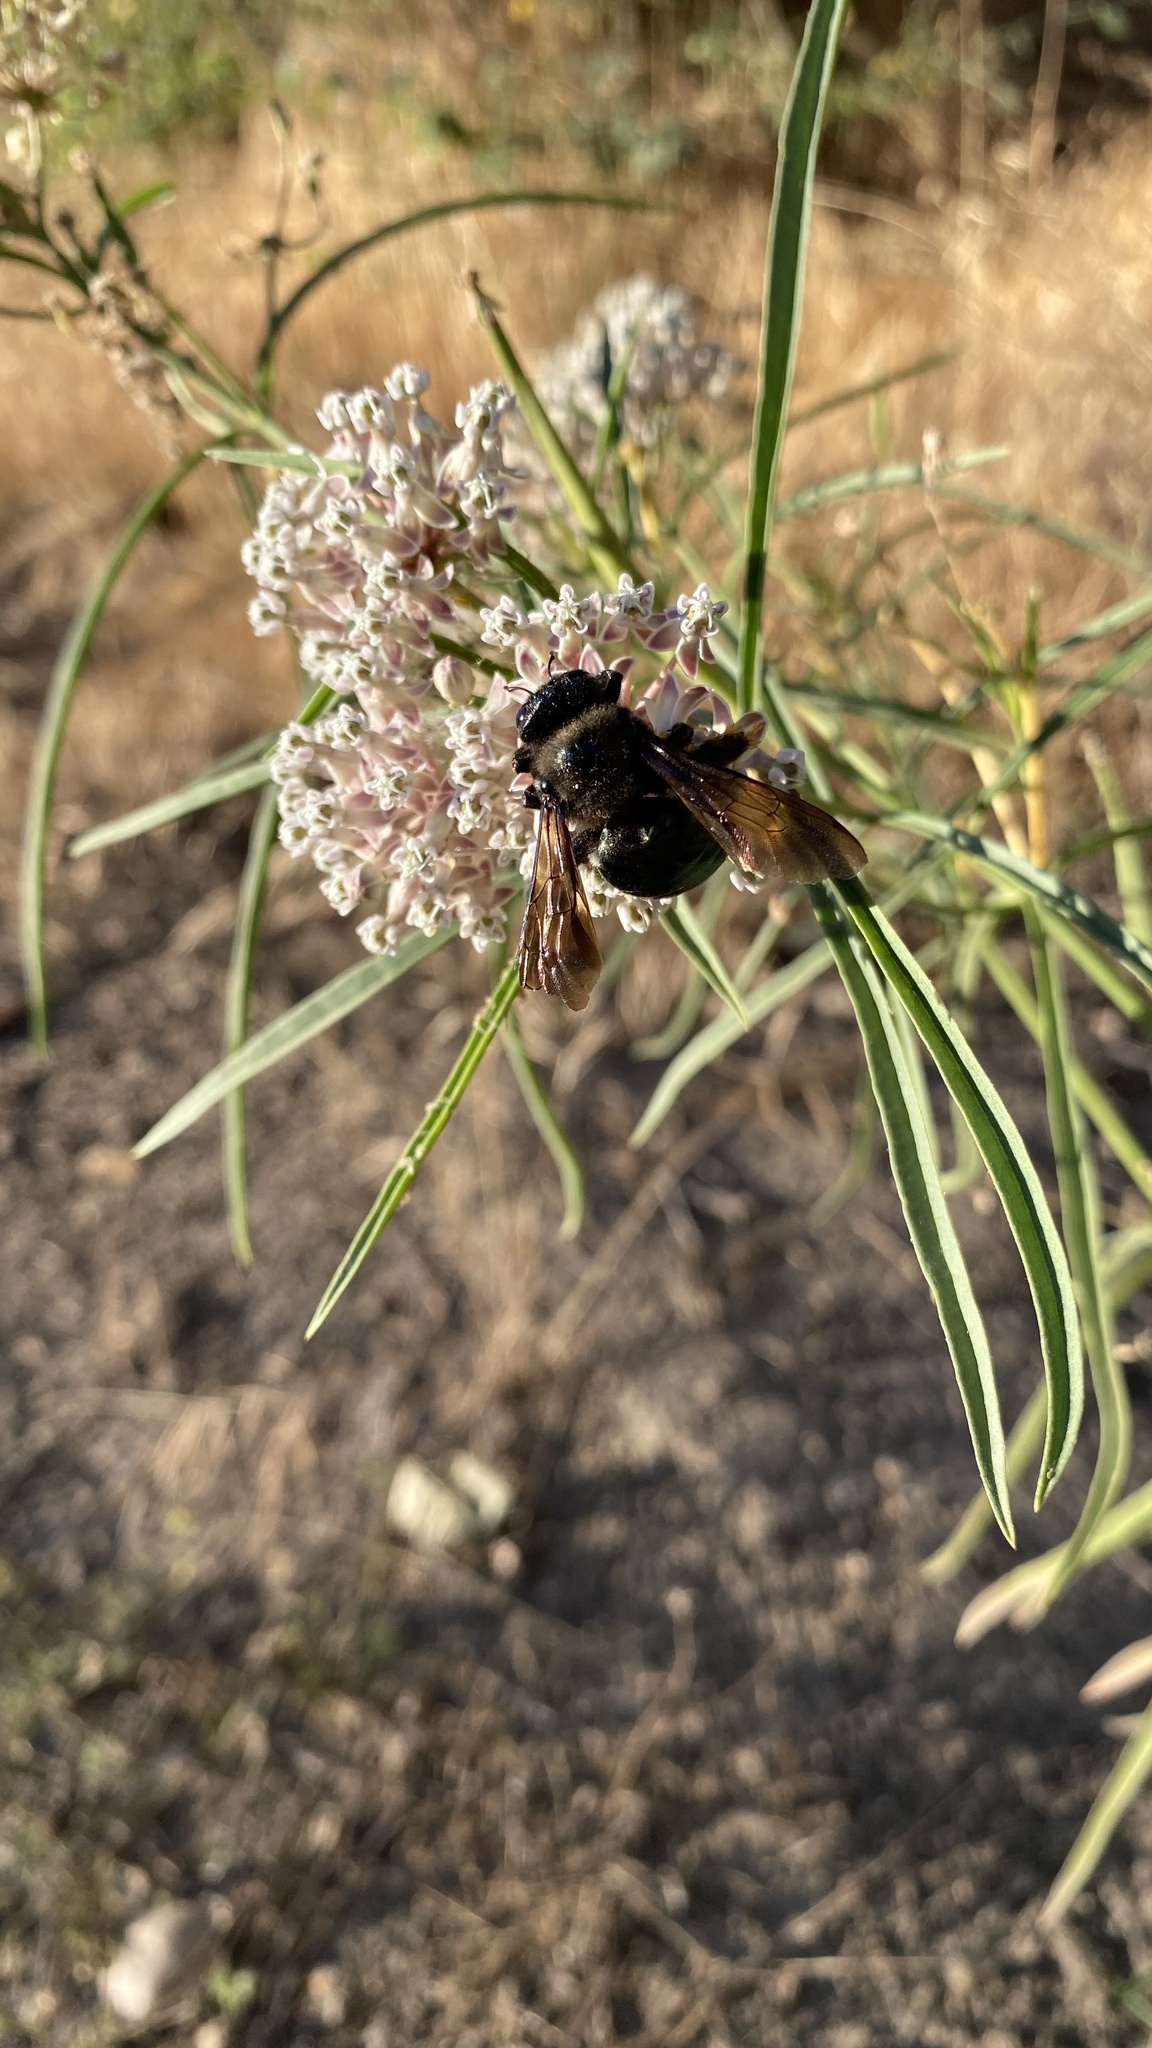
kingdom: Animalia
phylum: Arthropoda
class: Insecta
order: Hymenoptera
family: Apidae
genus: Xylocopa
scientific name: Xylocopa californica
